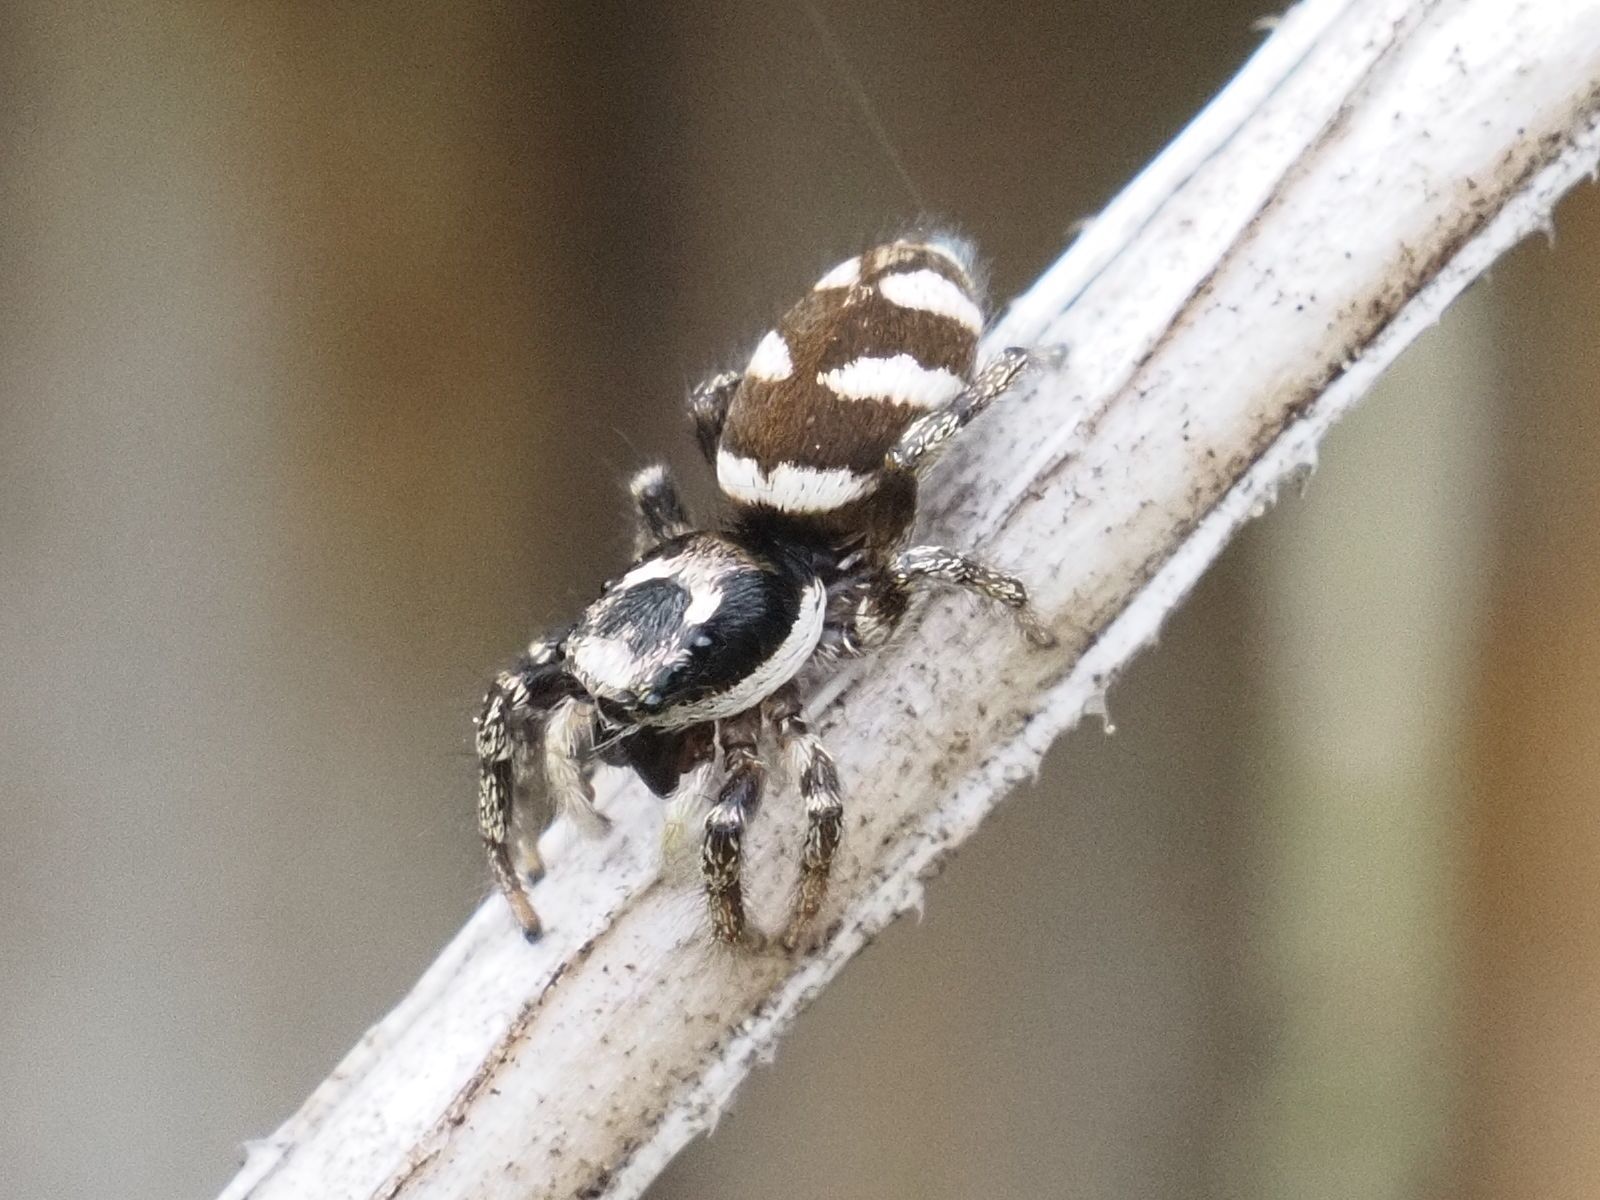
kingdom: Animalia
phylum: Arthropoda
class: Arachnida
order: Araneae
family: Salticidae
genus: Salticus
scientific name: Salticus scenicus
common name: Zebra jumper
